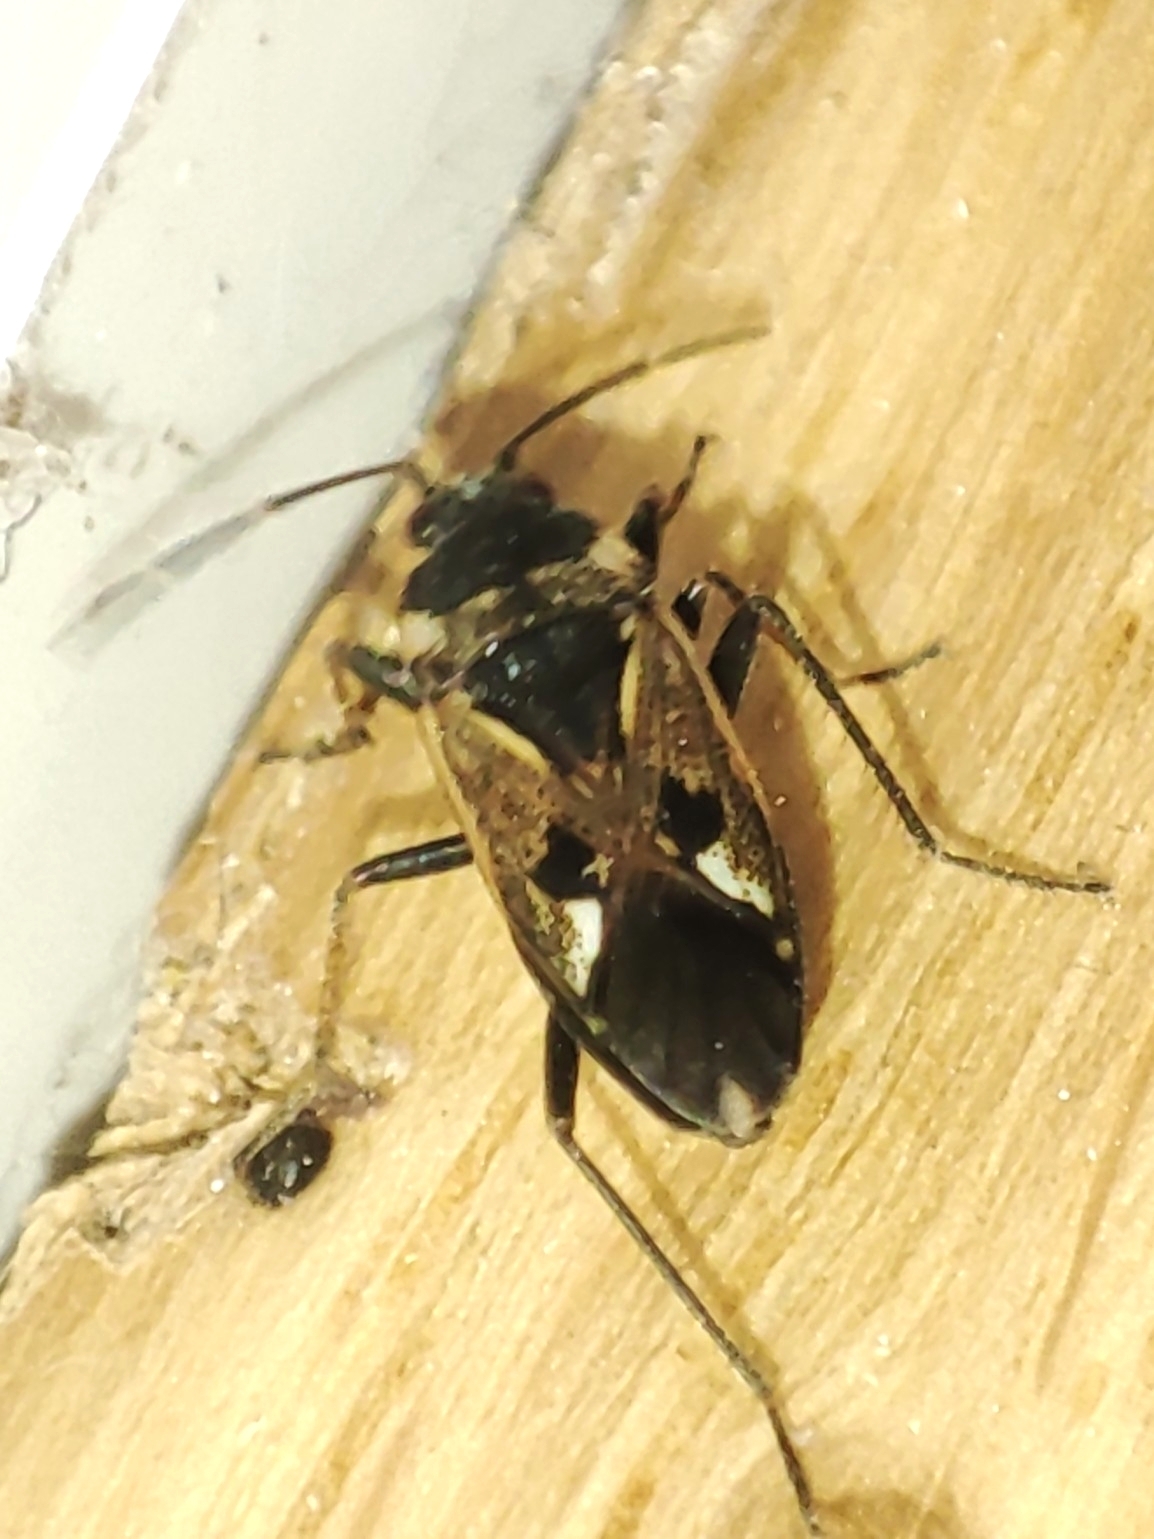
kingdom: Animalia
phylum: Arthropoda
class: Insecta
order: Hemiptera
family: Rhyparochromidae
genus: Rhyparochromus
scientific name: Rhyparochromus vulgaris
